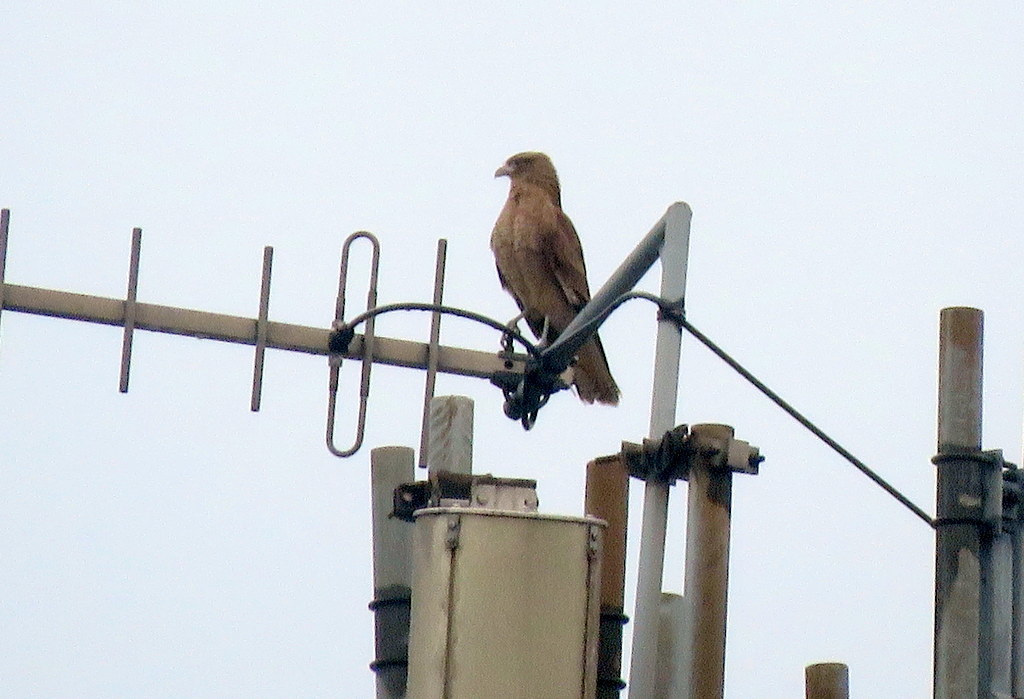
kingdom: Animalia
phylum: Chordata
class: Aves
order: Falconiformes
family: Falconidae
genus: Daptrius
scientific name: Daptrius
